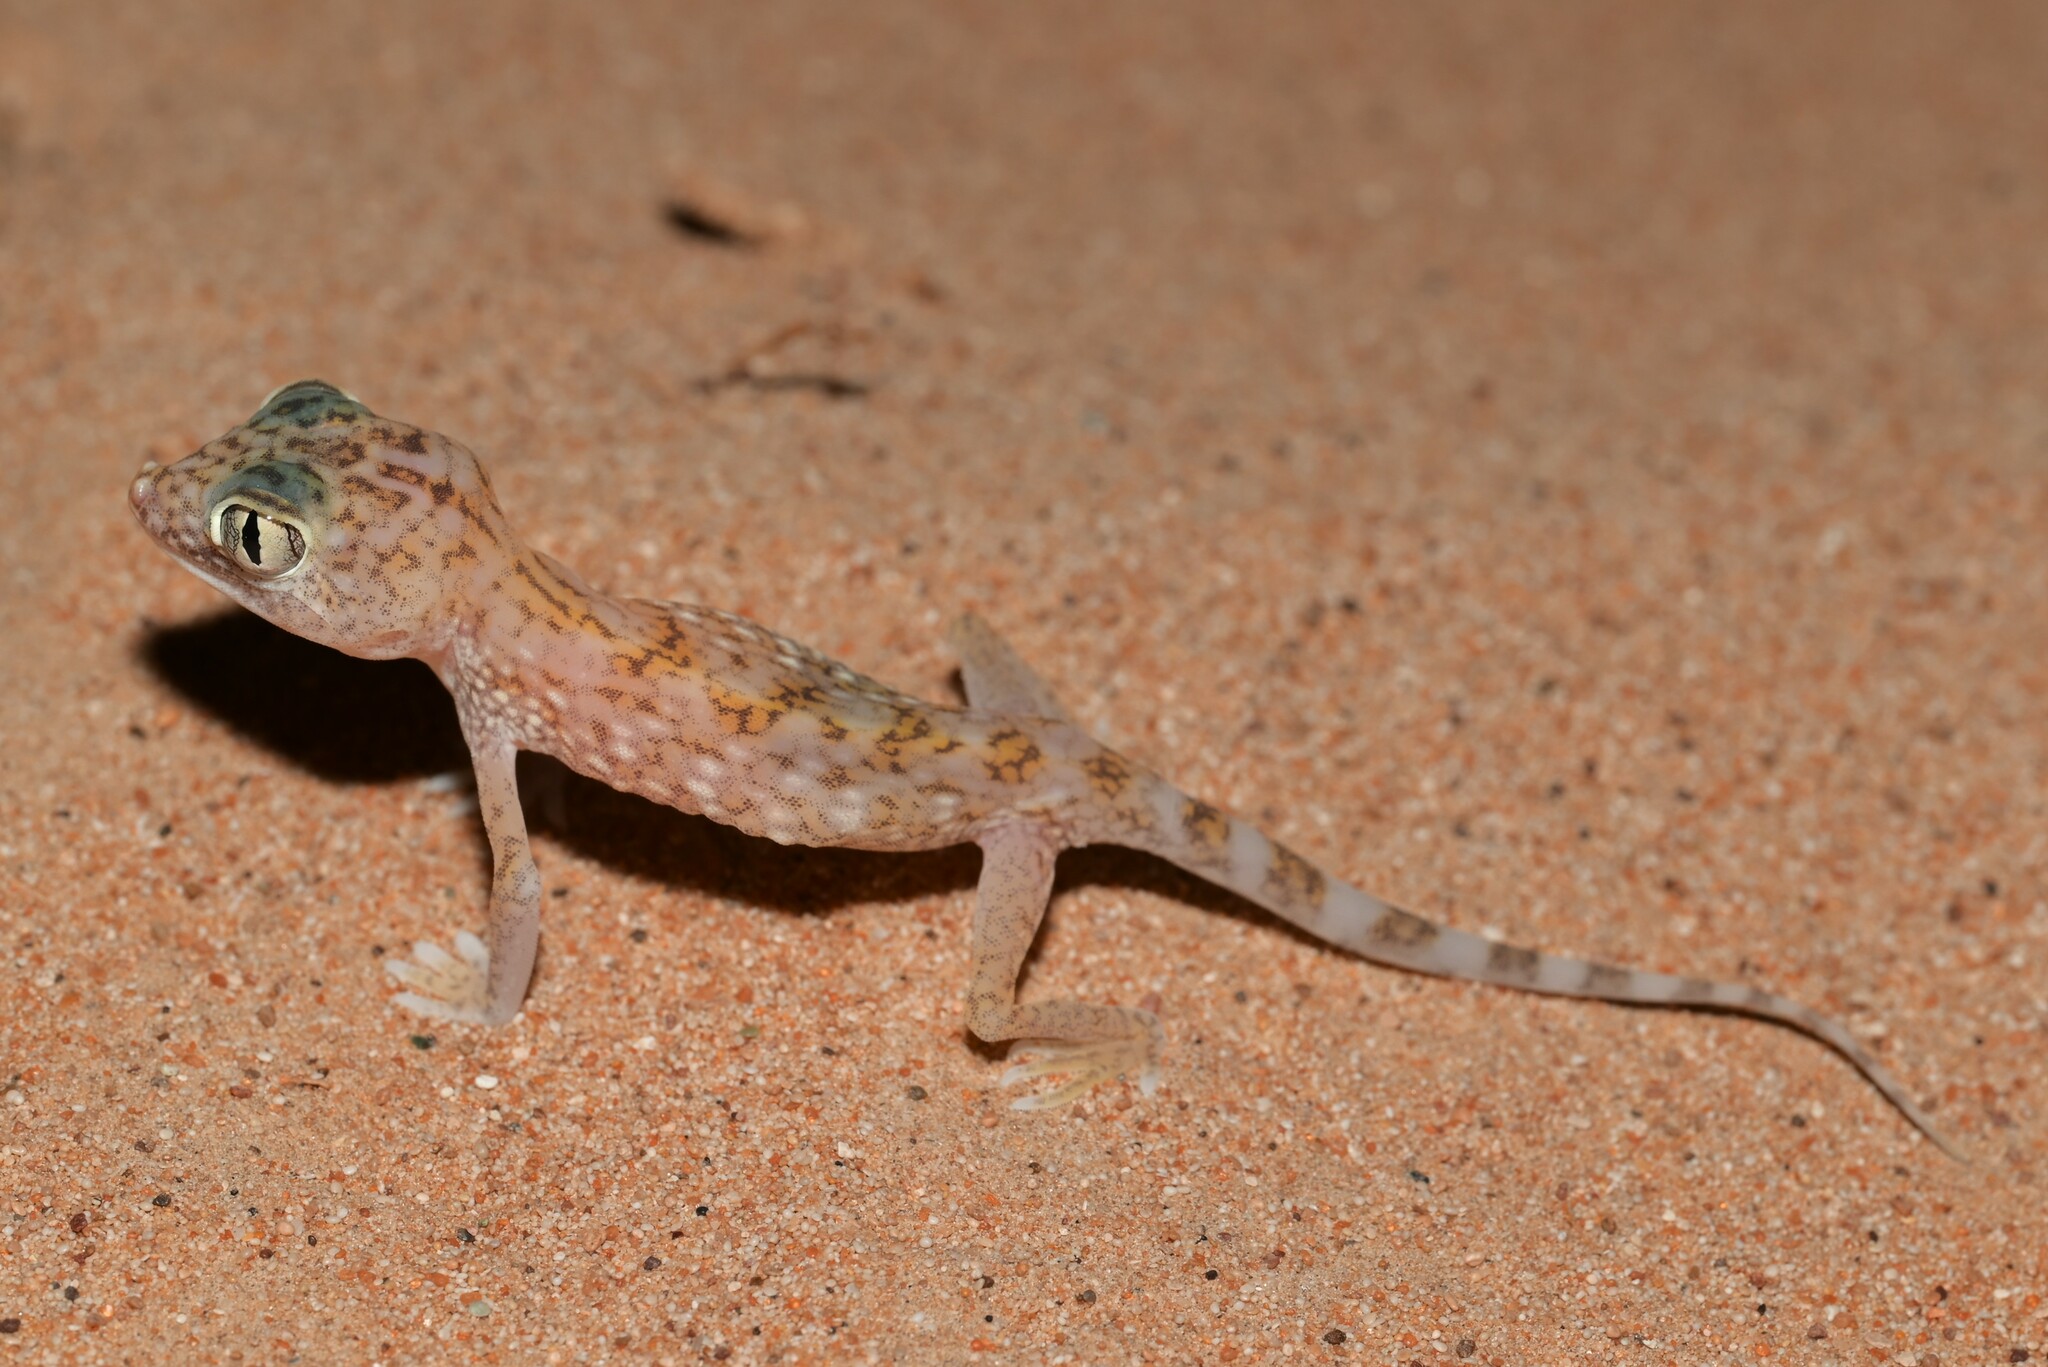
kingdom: Animalia
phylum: Chordata
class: Squamata
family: Gekkonidae
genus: Stenodactylus
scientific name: Stenodactylus doriae
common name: Dune sand gecko
